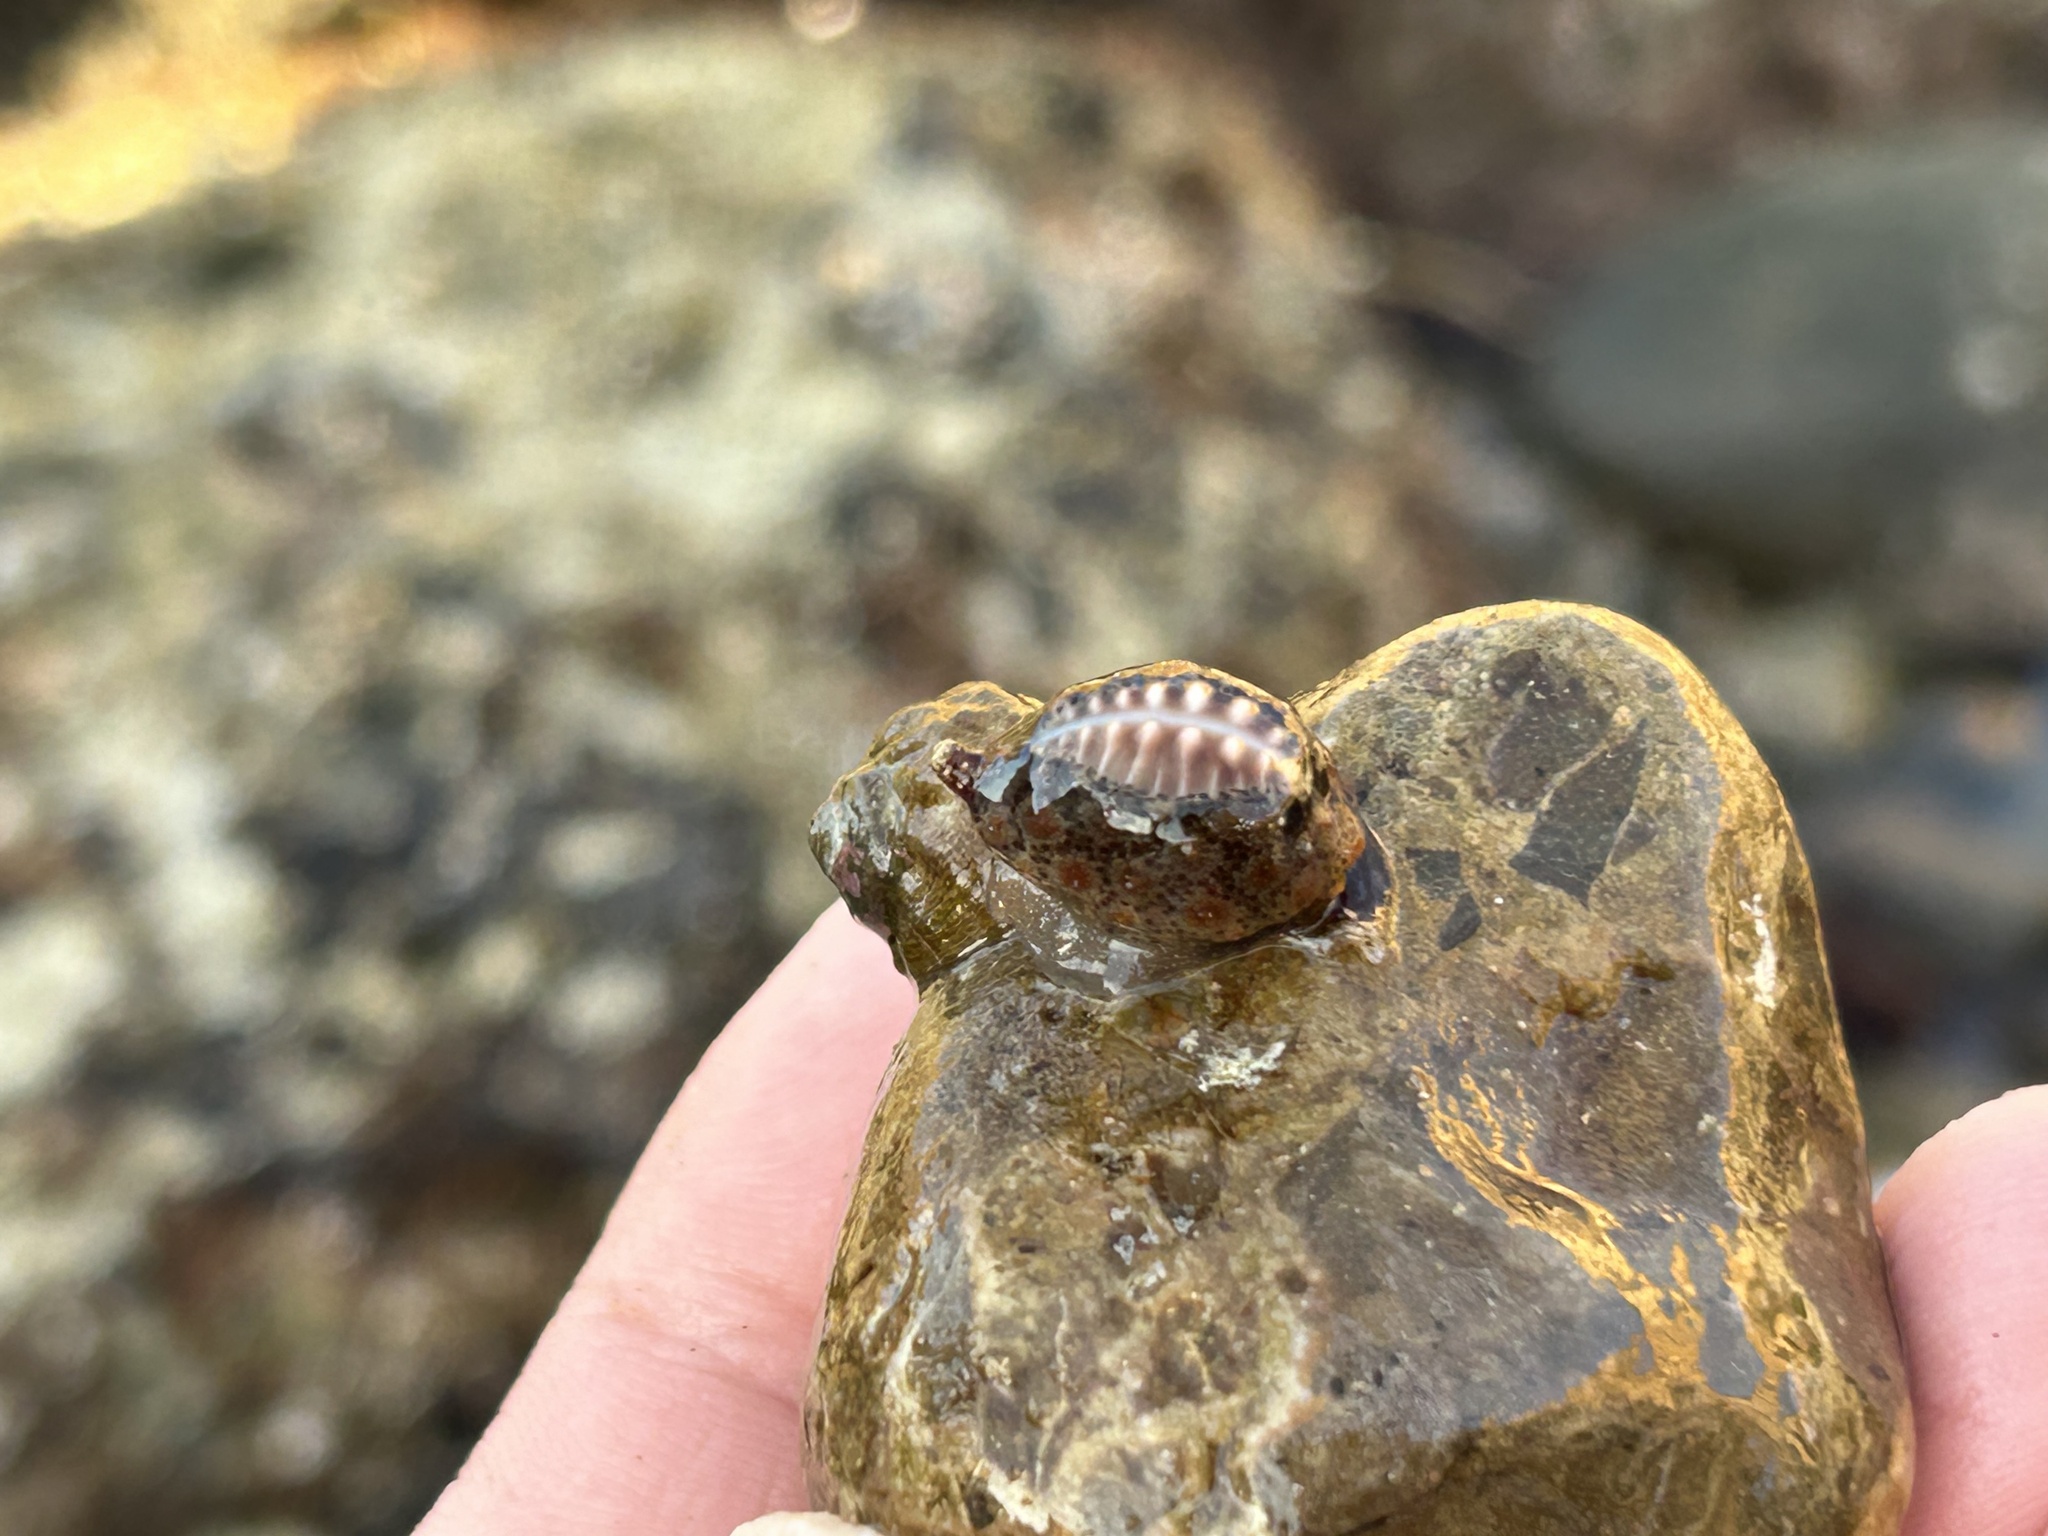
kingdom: Animalia
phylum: Mollusca
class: Gastropoda
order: Littorinimorpha
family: Triviidae
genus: Pusula
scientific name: Pusula solandri
